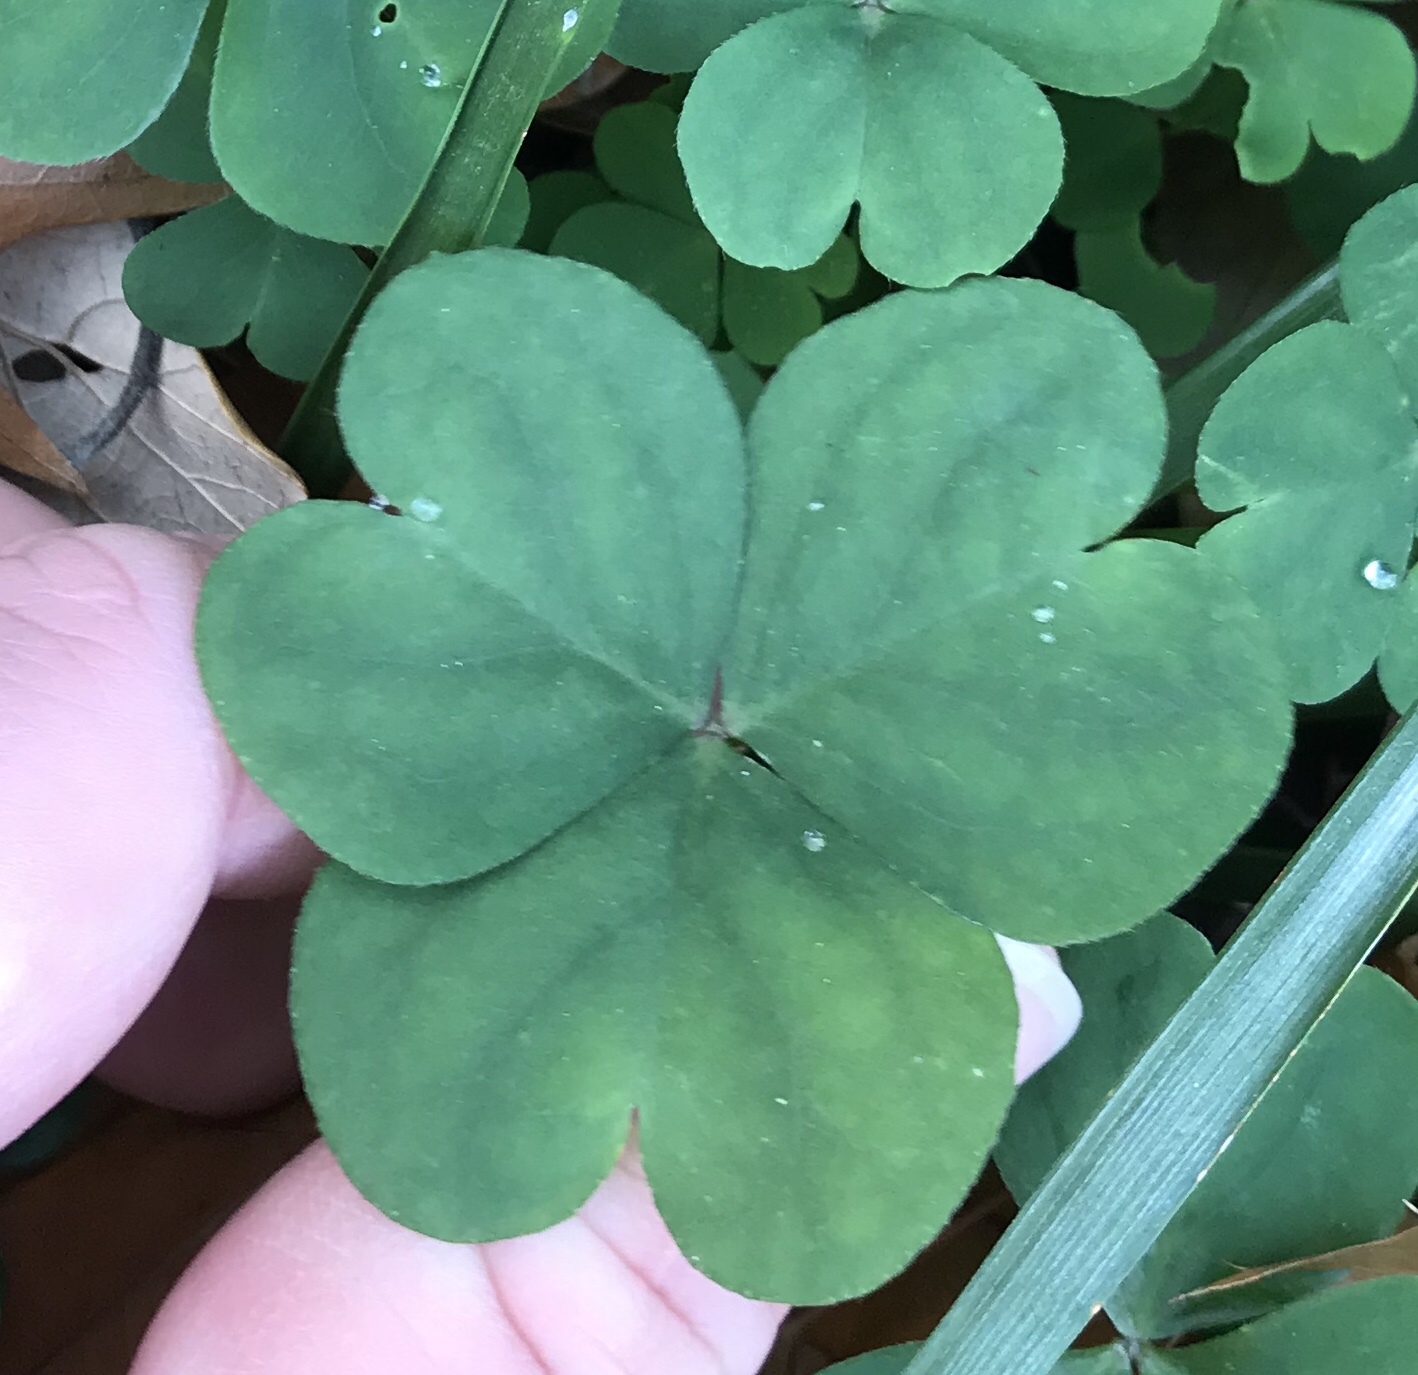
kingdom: Plantae
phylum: Tracheophyta
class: Magnoliopsida
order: Oxalidales
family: Oxalidaceae
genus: Oxalis
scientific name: Oxalis debilis
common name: Large-flowered pink-sorrel
